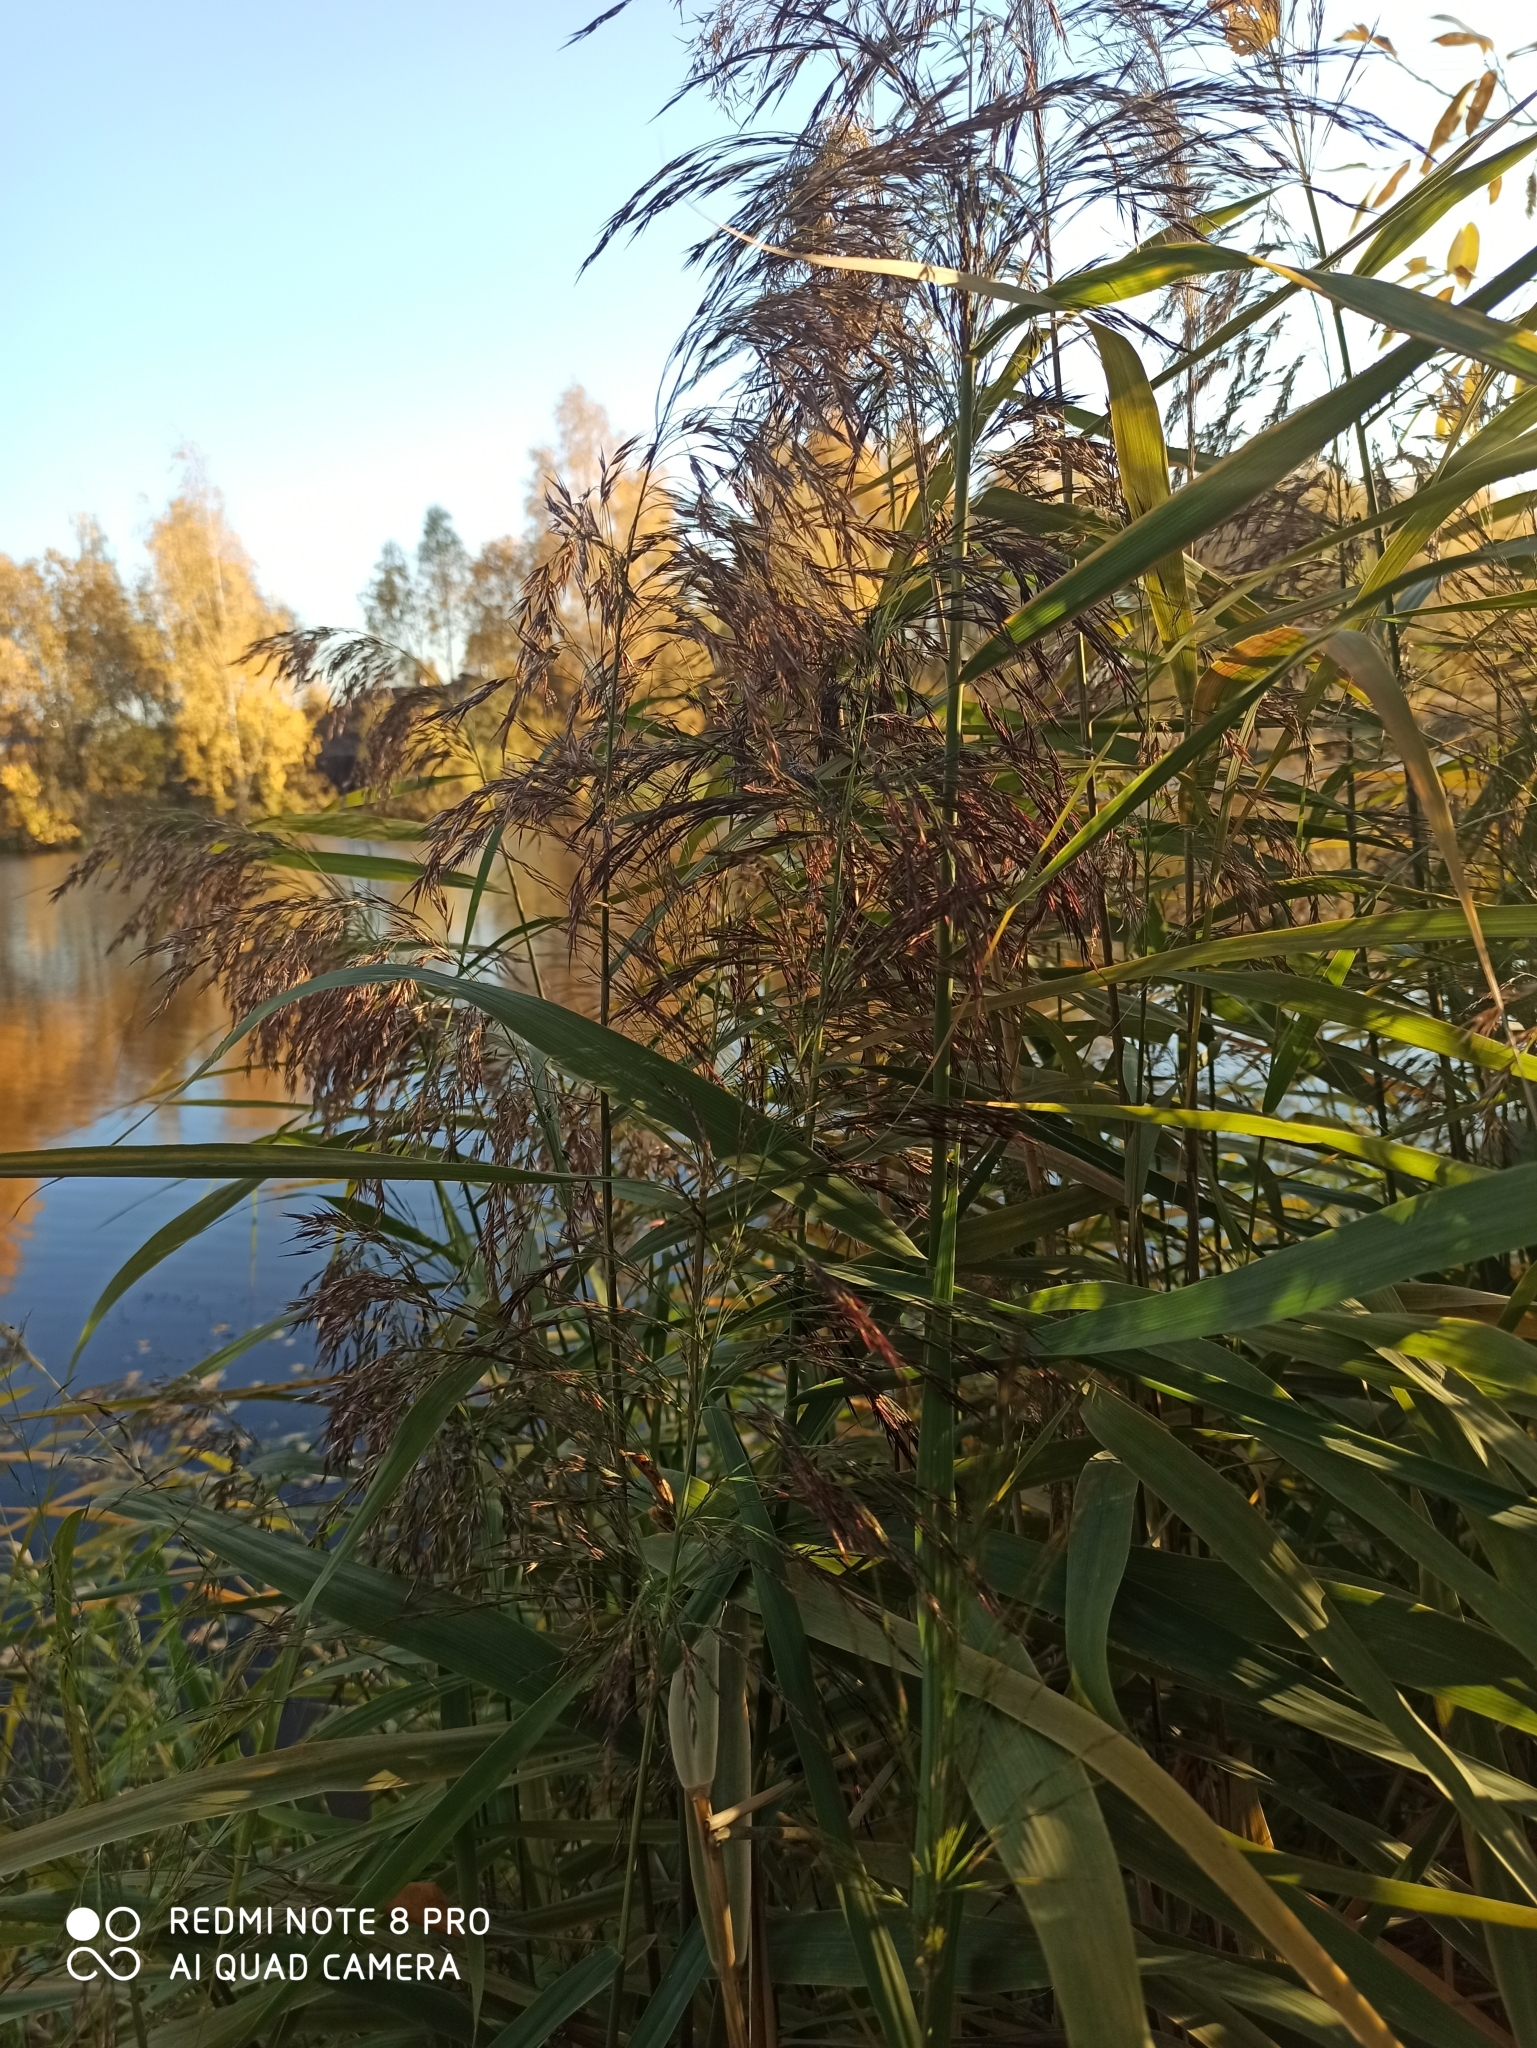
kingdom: Plantae
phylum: Tracheophyta
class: Liliopsida
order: Poales
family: Poaceae
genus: Phragmites
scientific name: Phragmites australis
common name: Common reed
